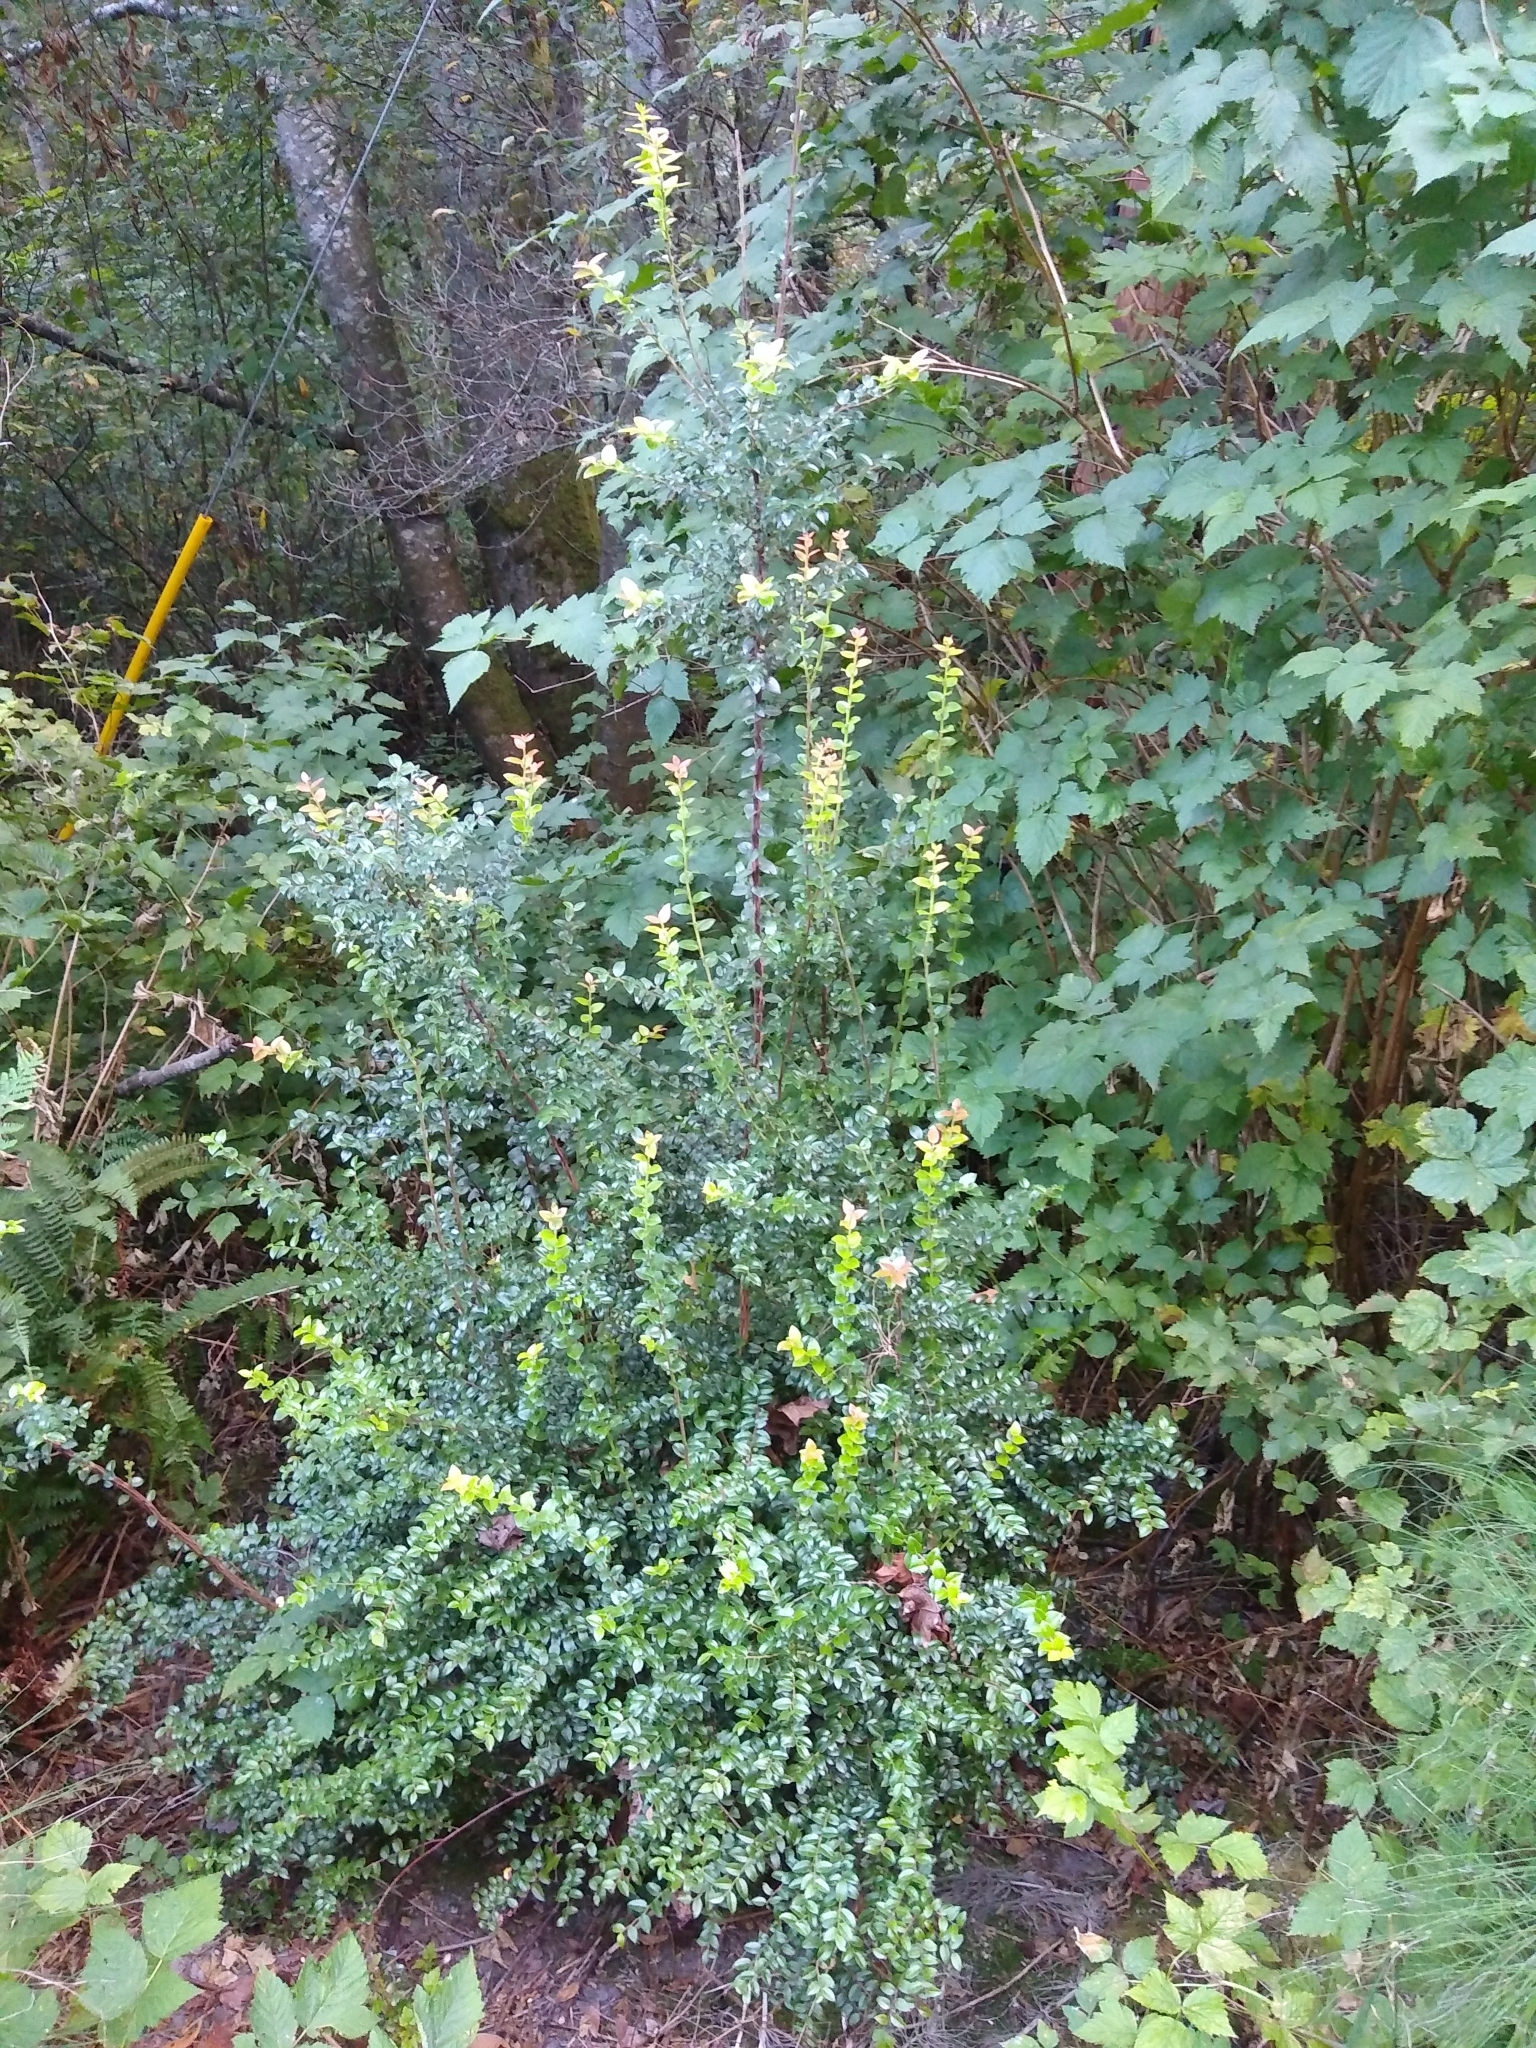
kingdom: Plantae
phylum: Tracheophyta
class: Magnoliopsida
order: Ericales
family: Ericaceae
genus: Vaccinium
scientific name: Vaccinium ovatum
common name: California-huckleberry
